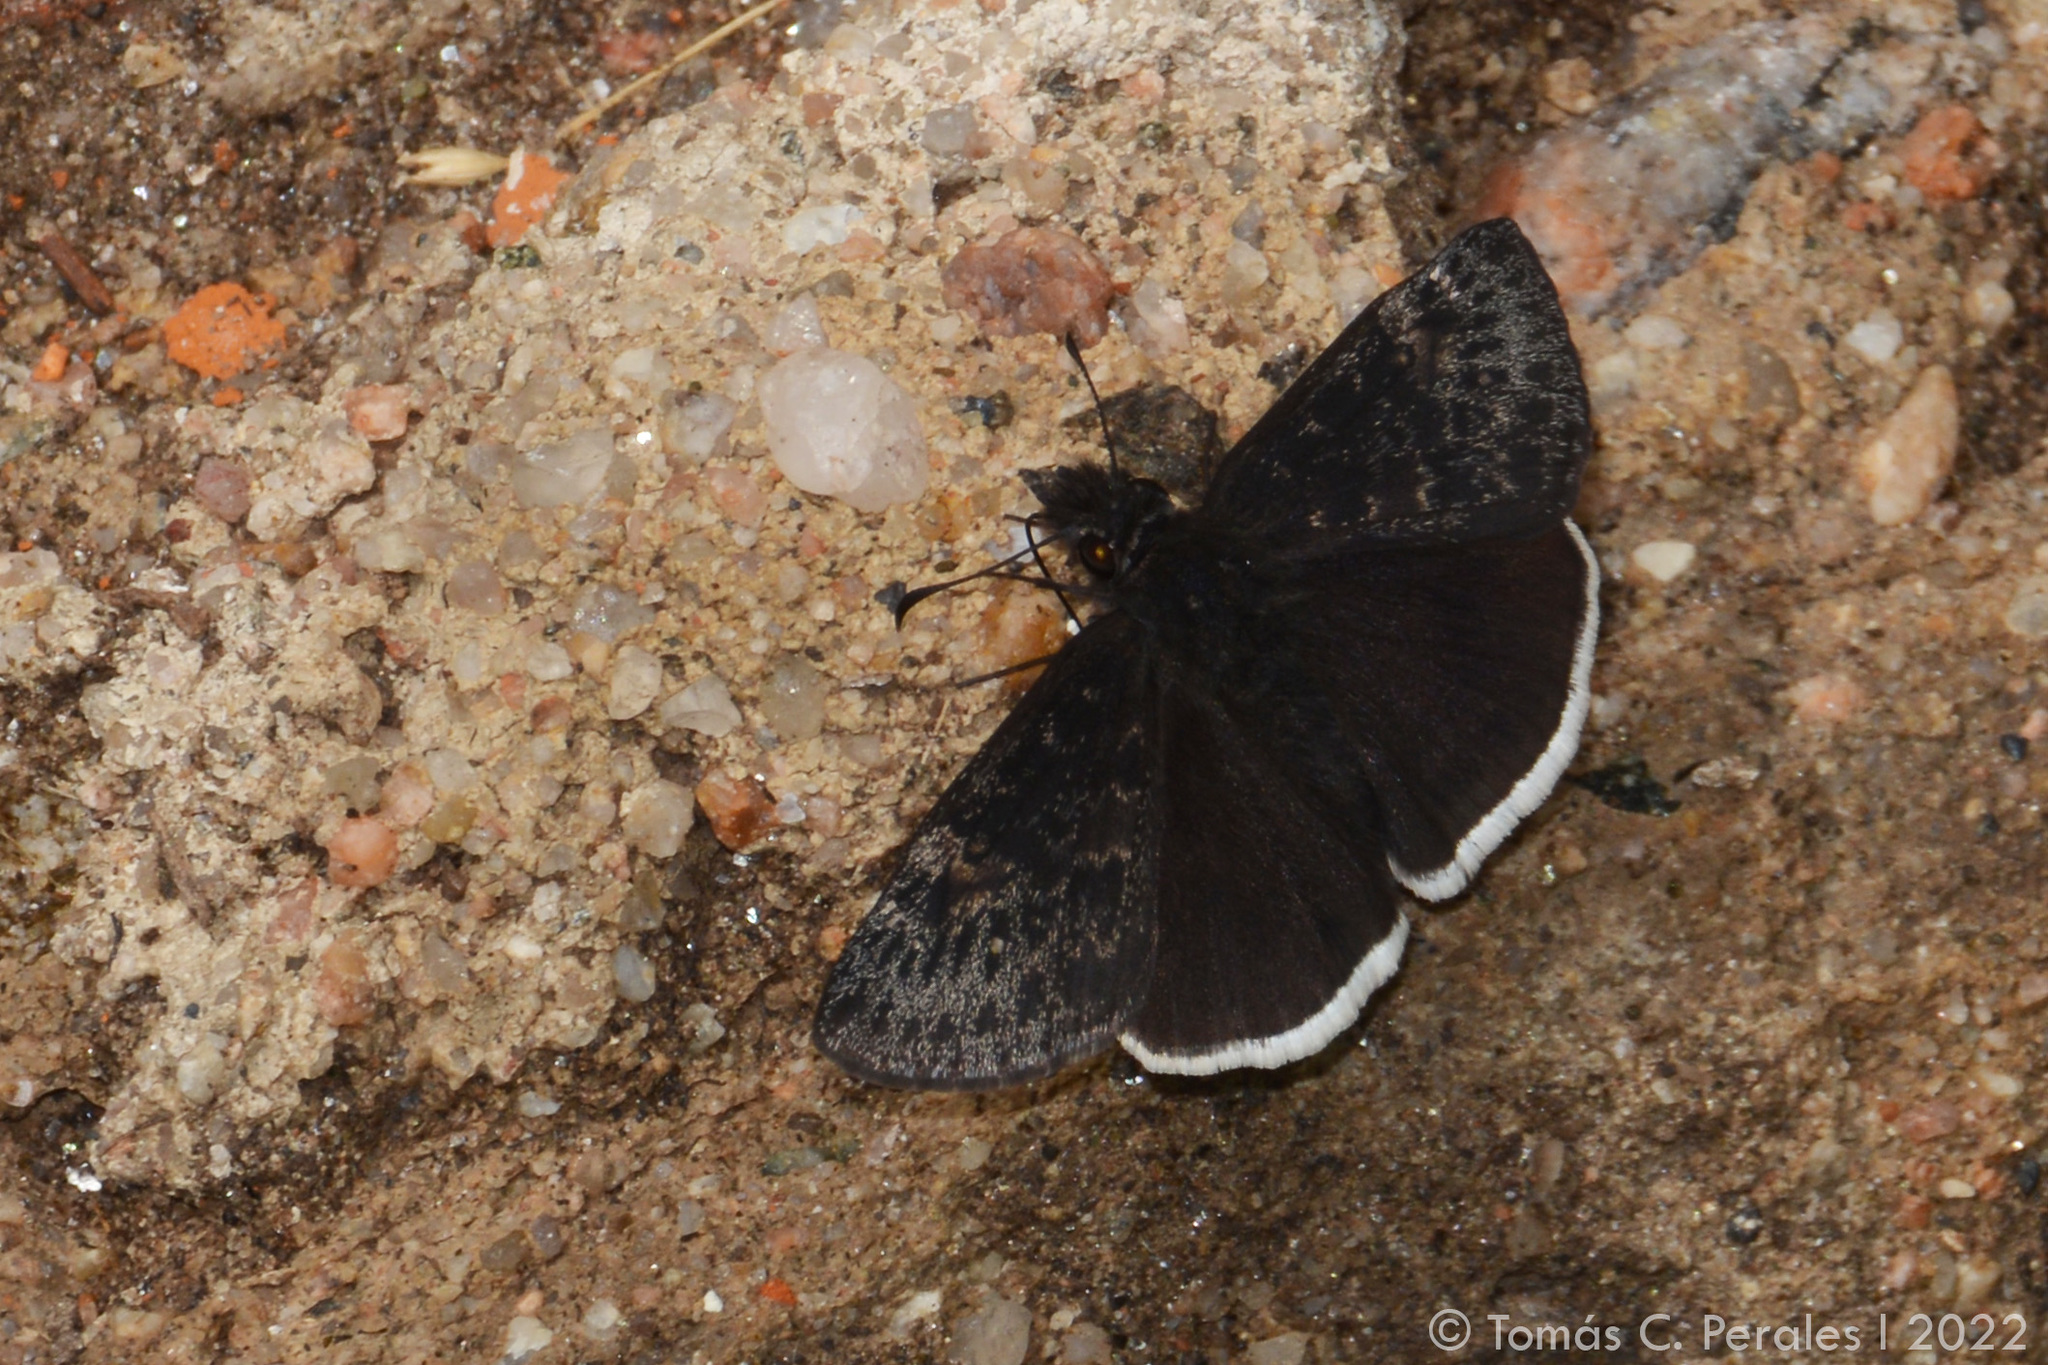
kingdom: Animalia
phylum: Arthropoda
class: Insecta
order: Lepidoptera
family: Hesperiidae
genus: Erynnis
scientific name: Erynnis funeralis
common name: Funereal duskywing
